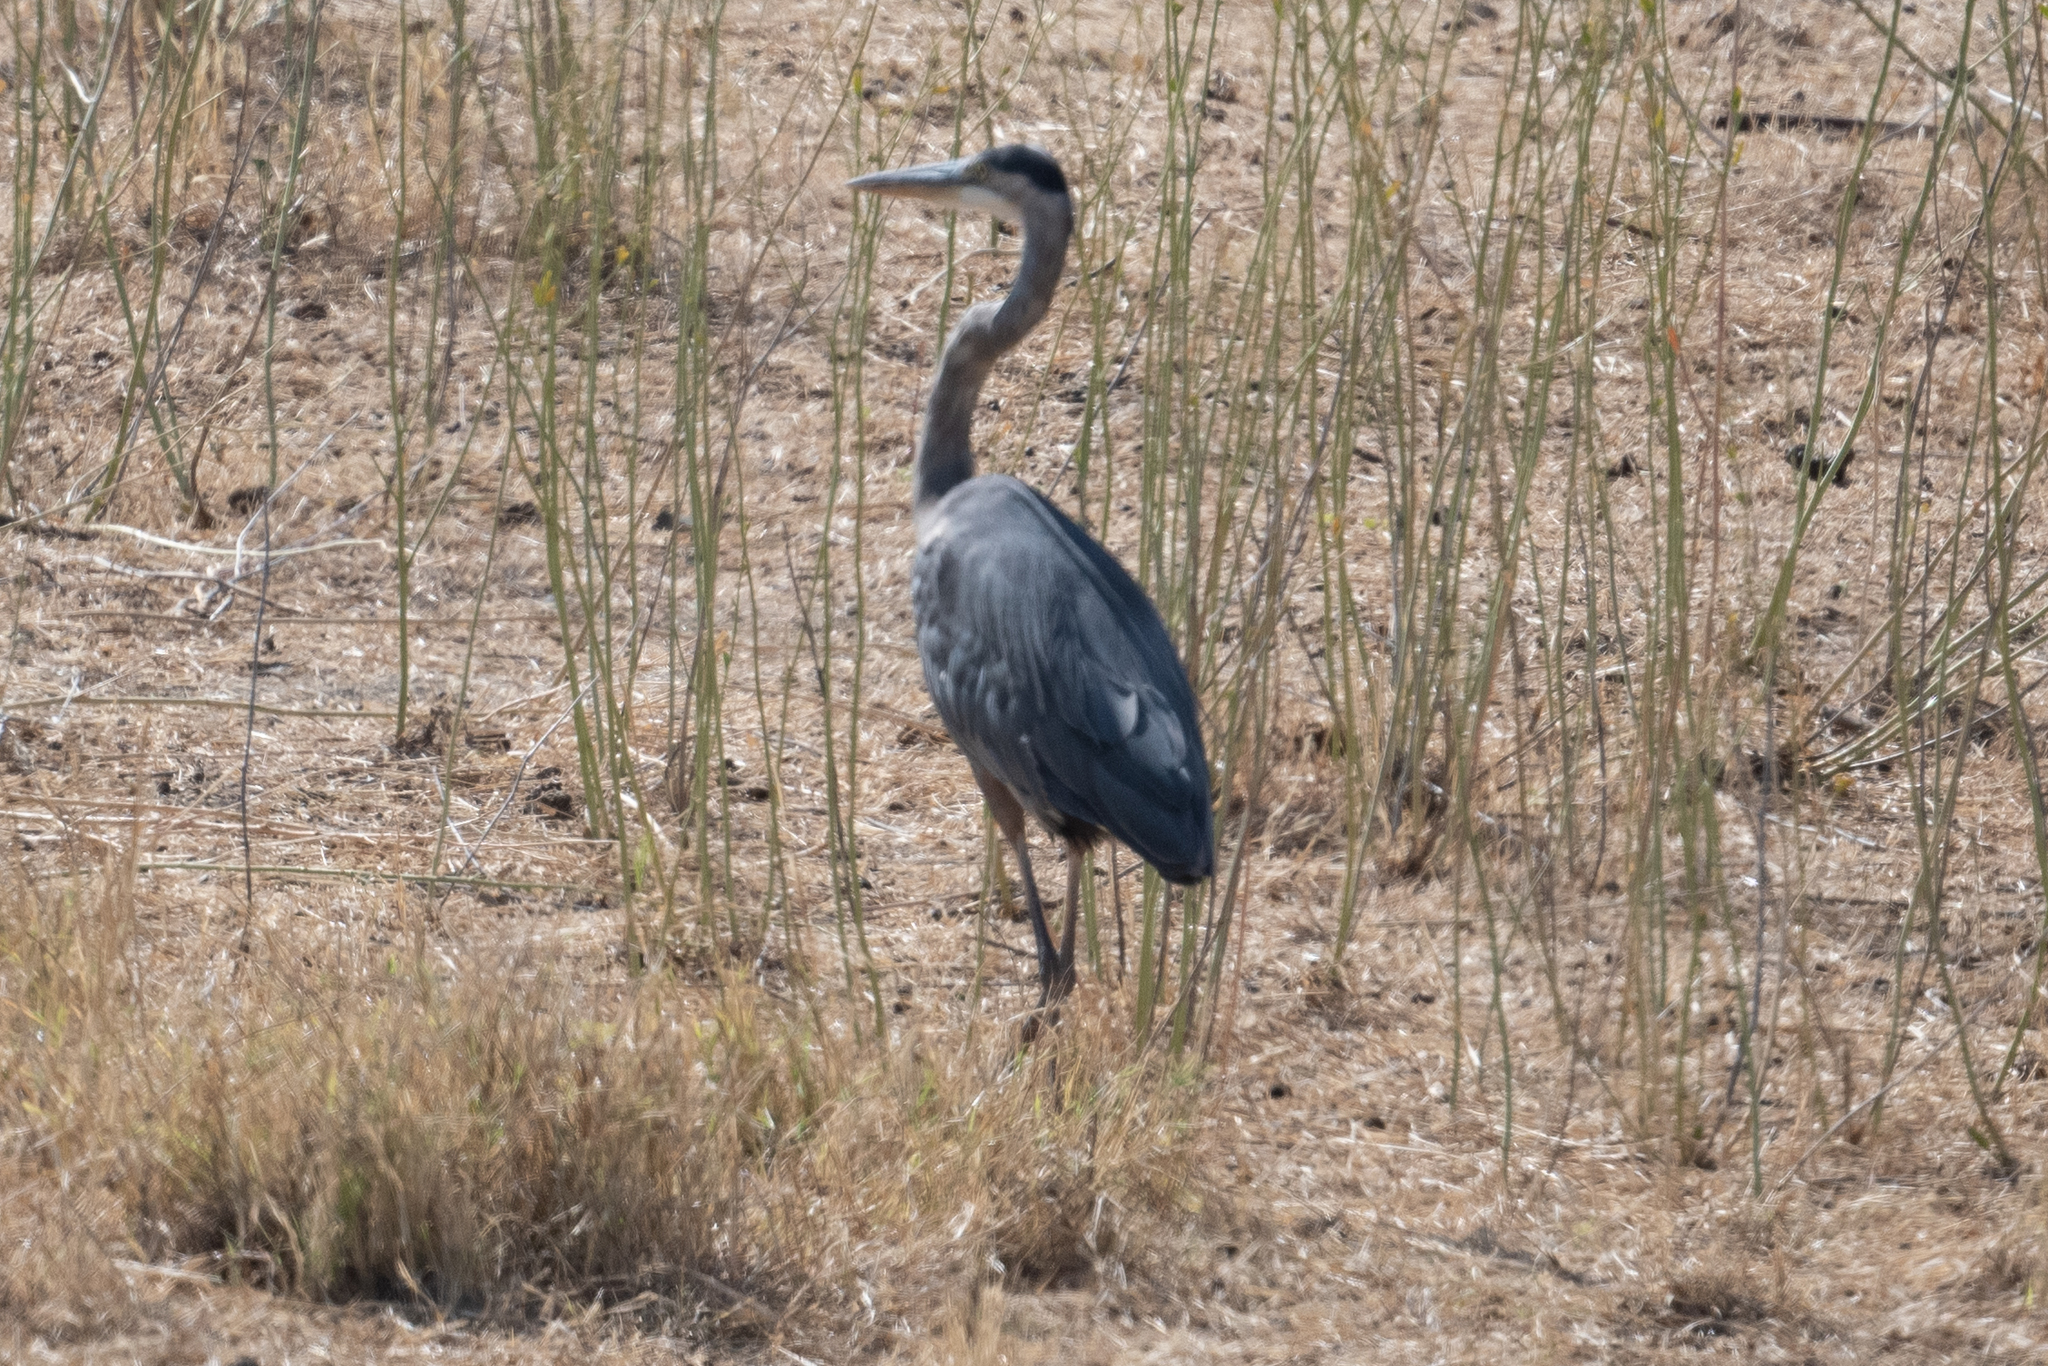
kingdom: Animalia
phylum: Chordata
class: Aves
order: Pelecaniformes
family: Ardeidae
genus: Ardea
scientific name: Ardea herodias
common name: Great blue heron
